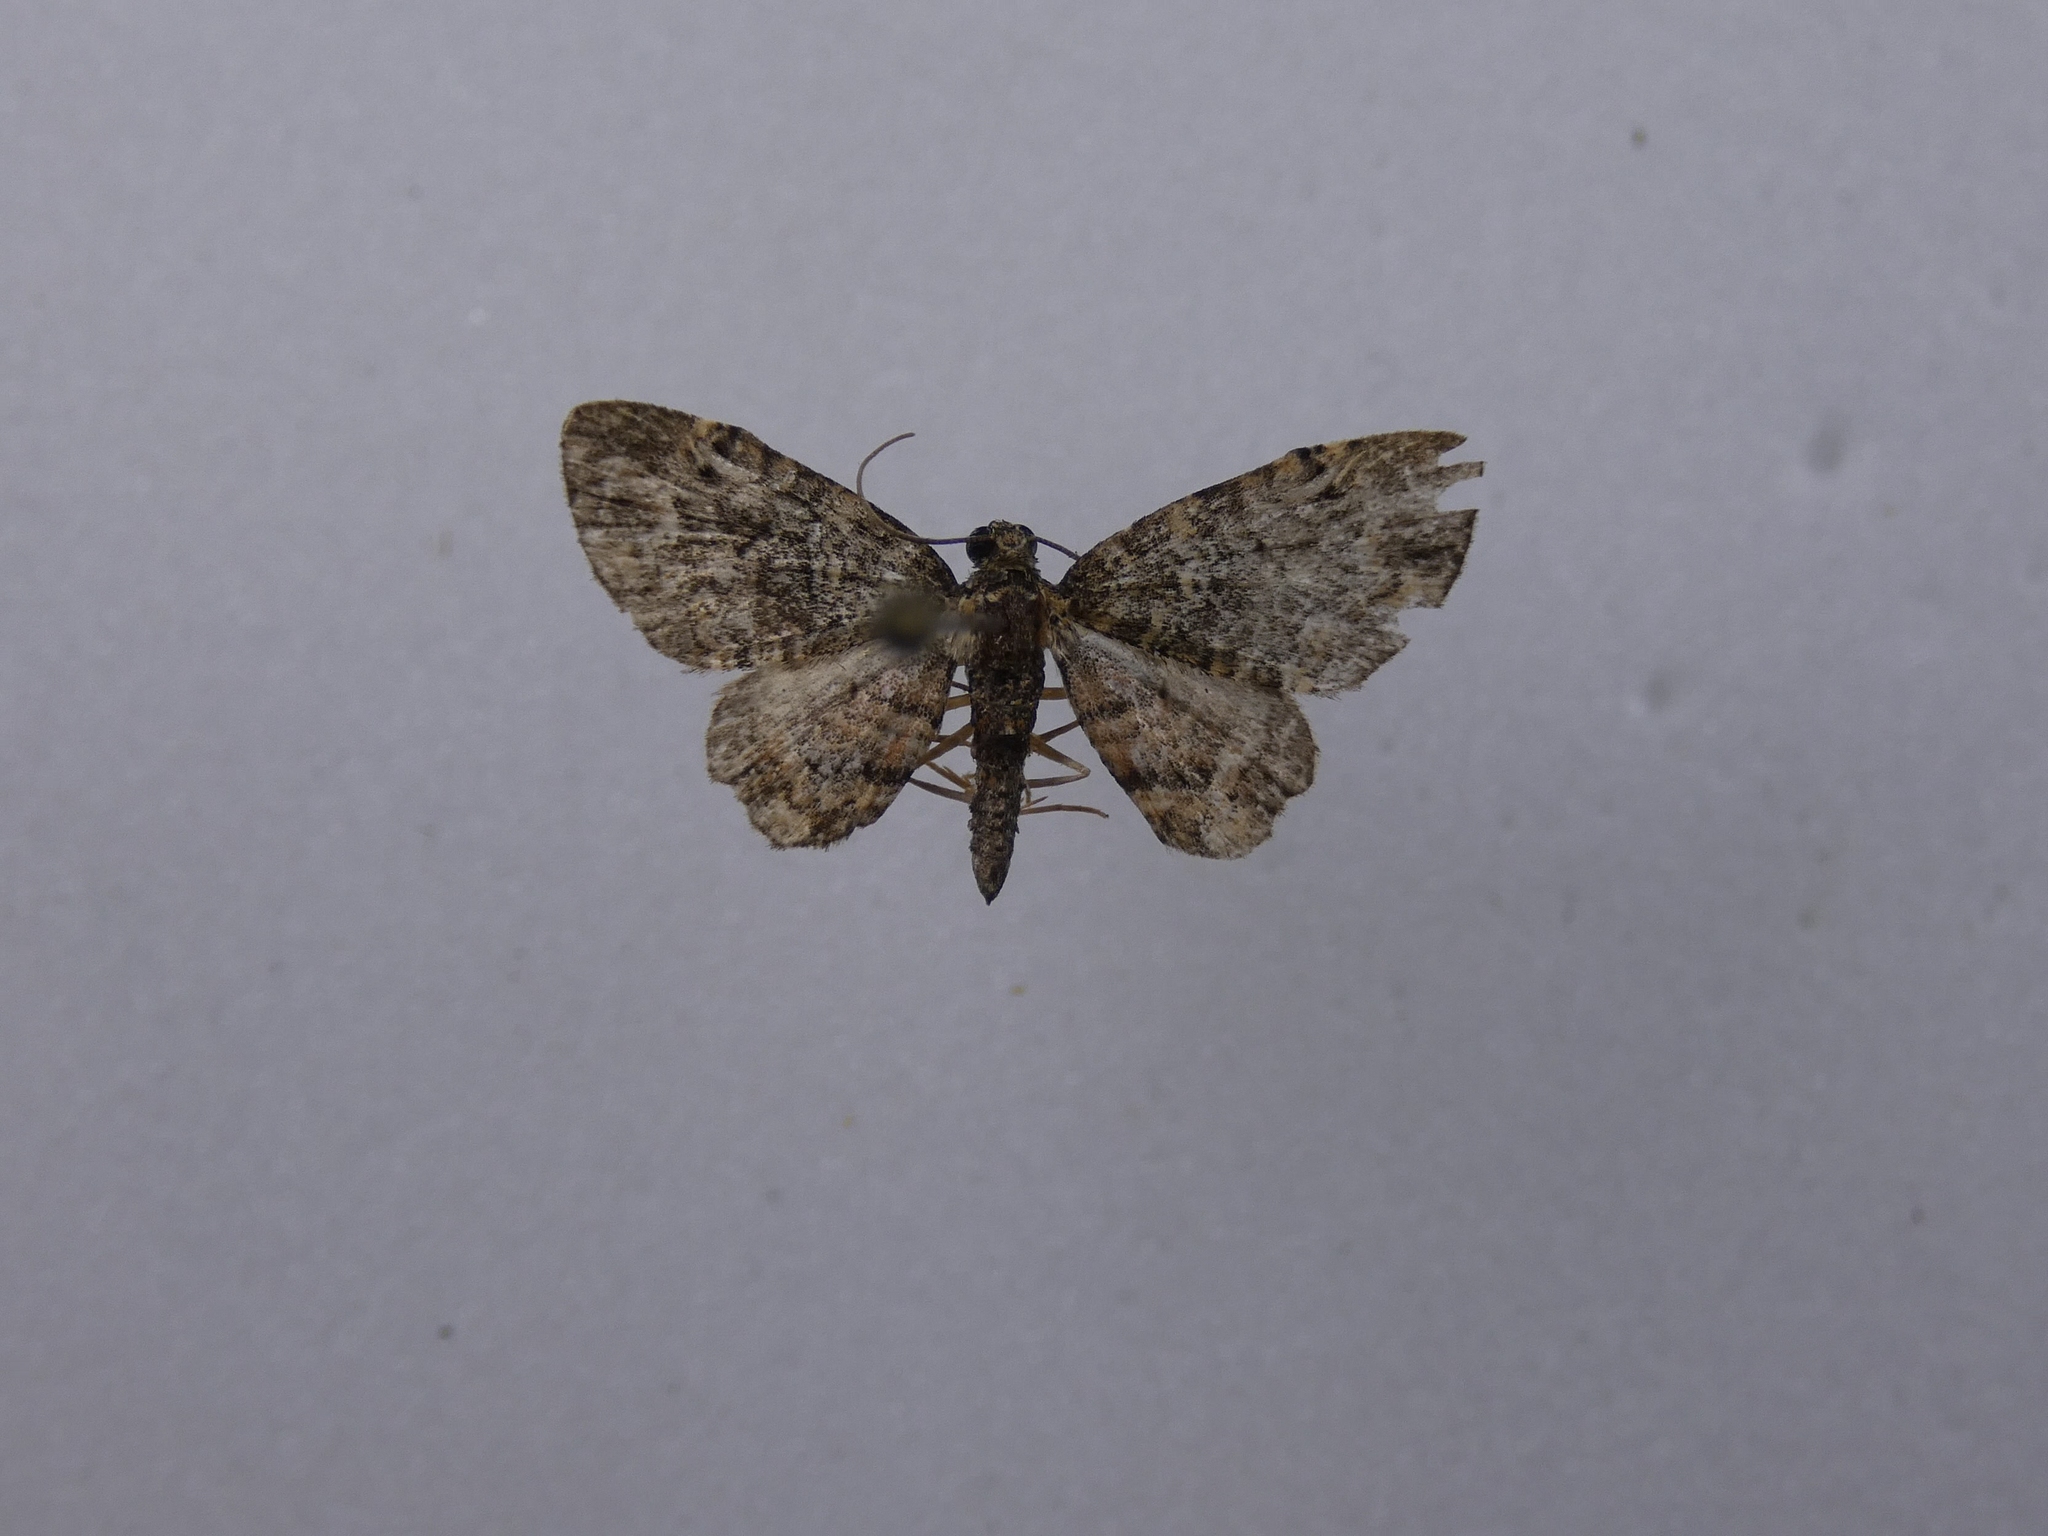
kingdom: Animalia
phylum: Arthropoda
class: Insecta
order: Lepidoptera
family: Geometridae
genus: Pasiphilodes
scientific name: Pasiphilodes testulata
